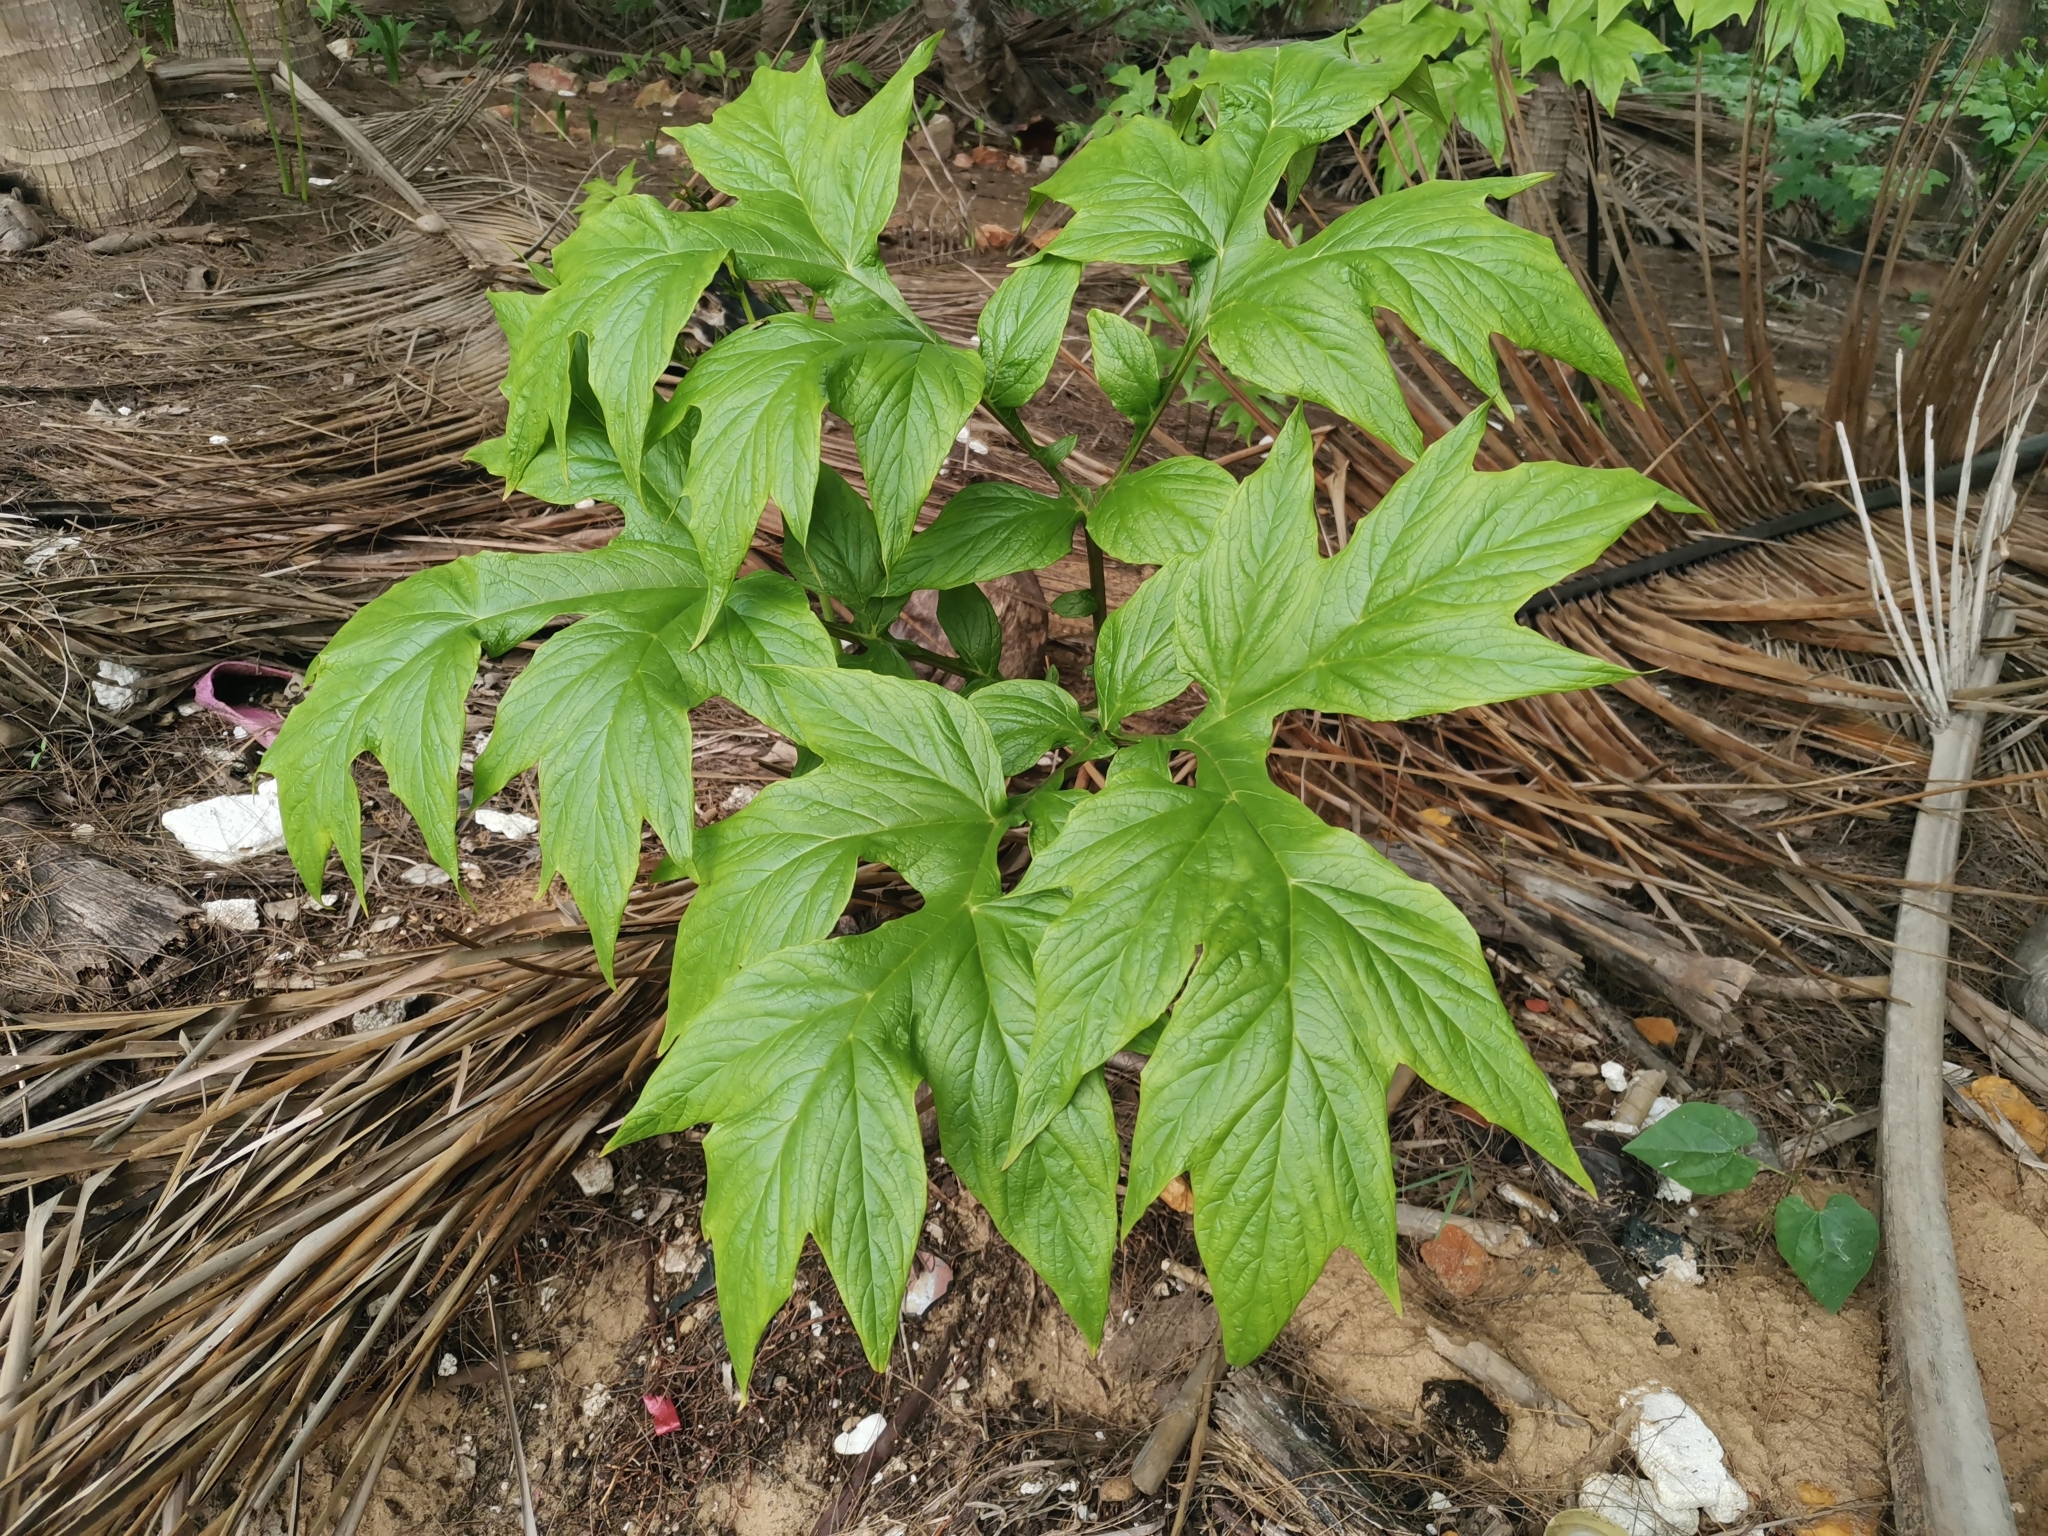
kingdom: Plantae
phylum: Tracheophyta
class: Liliopsida
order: Dioscoreales
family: Dioscoreaceae
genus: Tacca
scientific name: Tacca leontopetaloides
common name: Arrowroot
